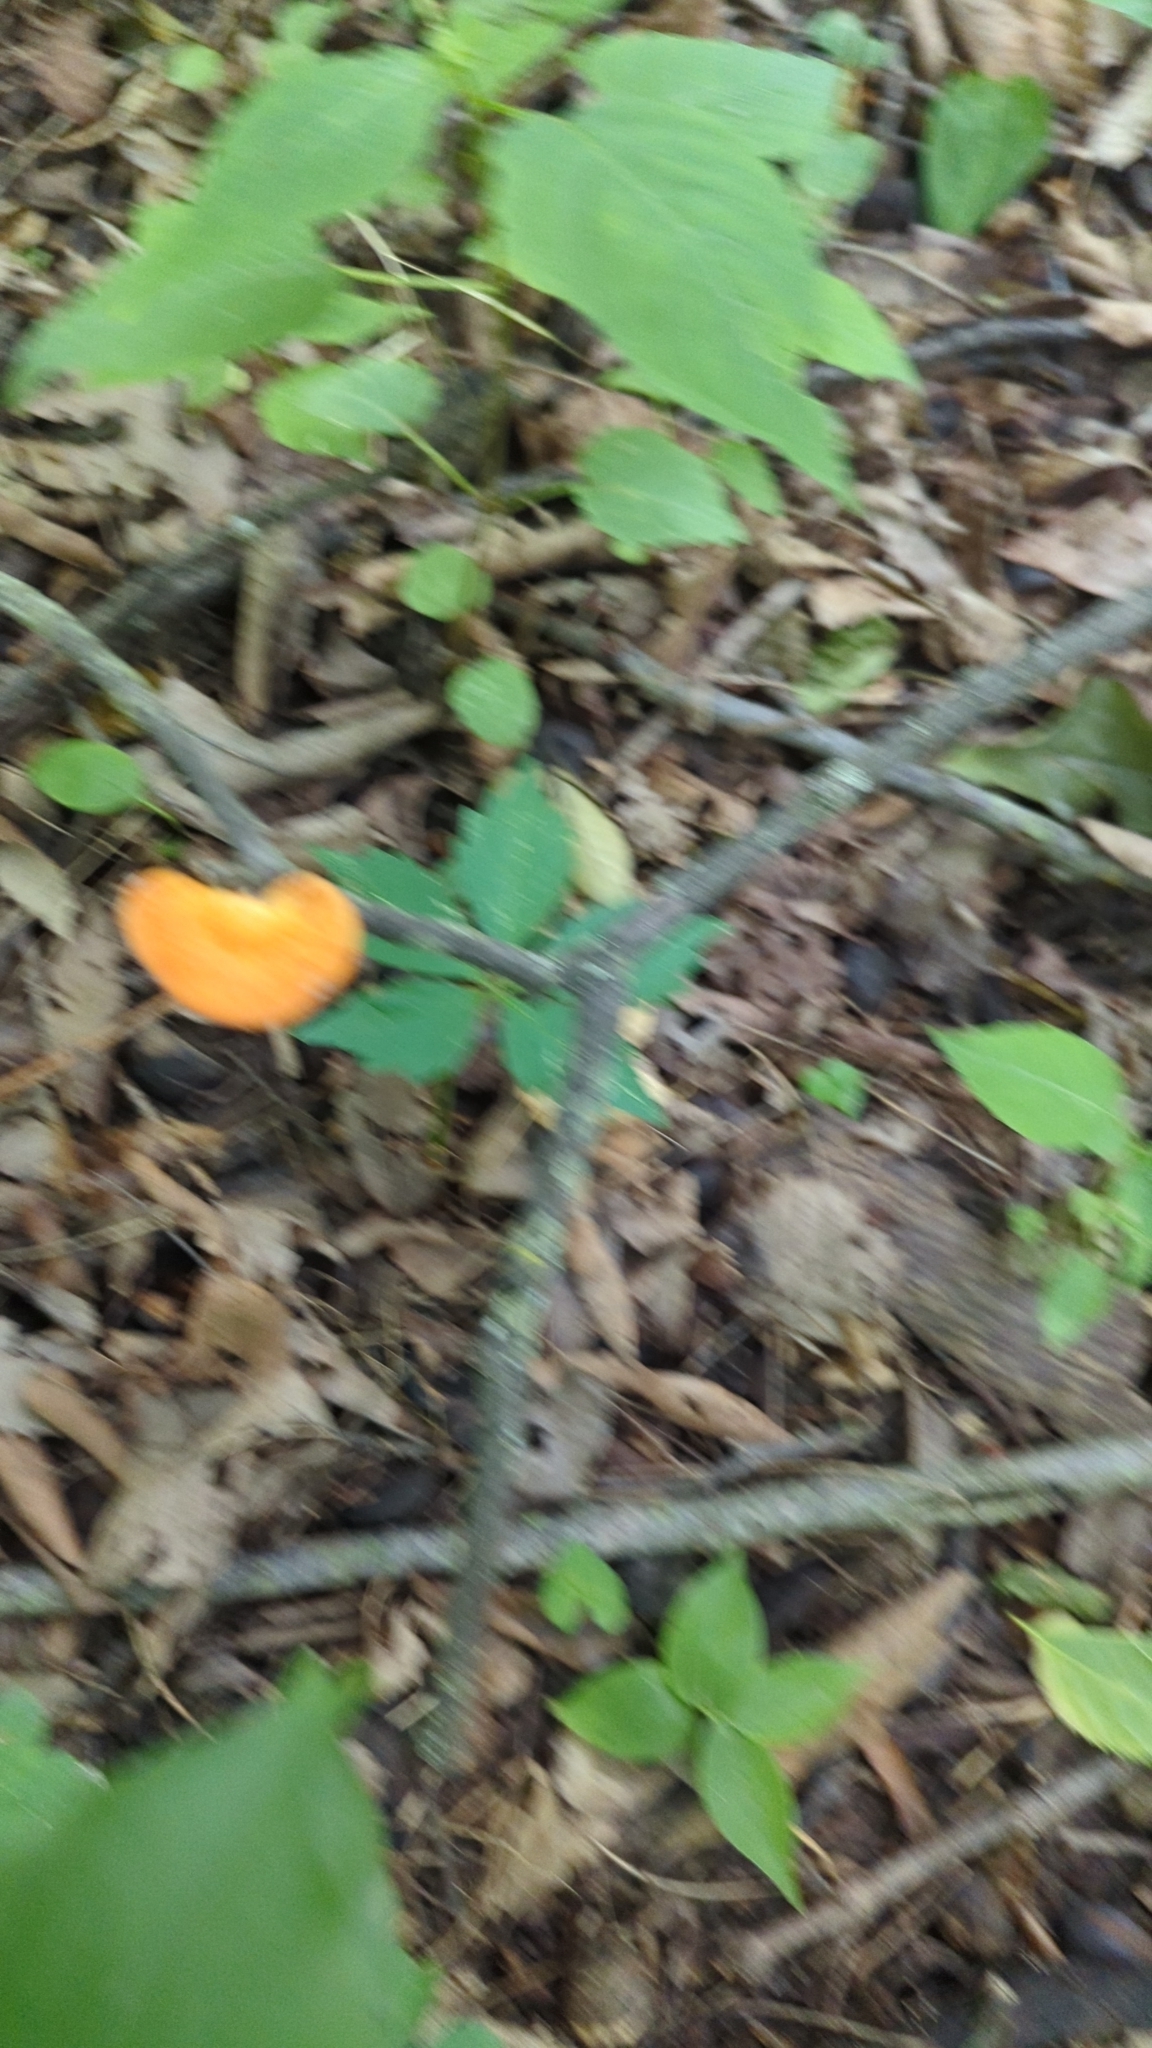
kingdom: Fungi
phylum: Basidiomycota
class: Agaricomycetes
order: Polyporales
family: Polyporaceae
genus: Neofavolus
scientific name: Neofavolus alveolaris
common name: Hexagonal-pored polypore
